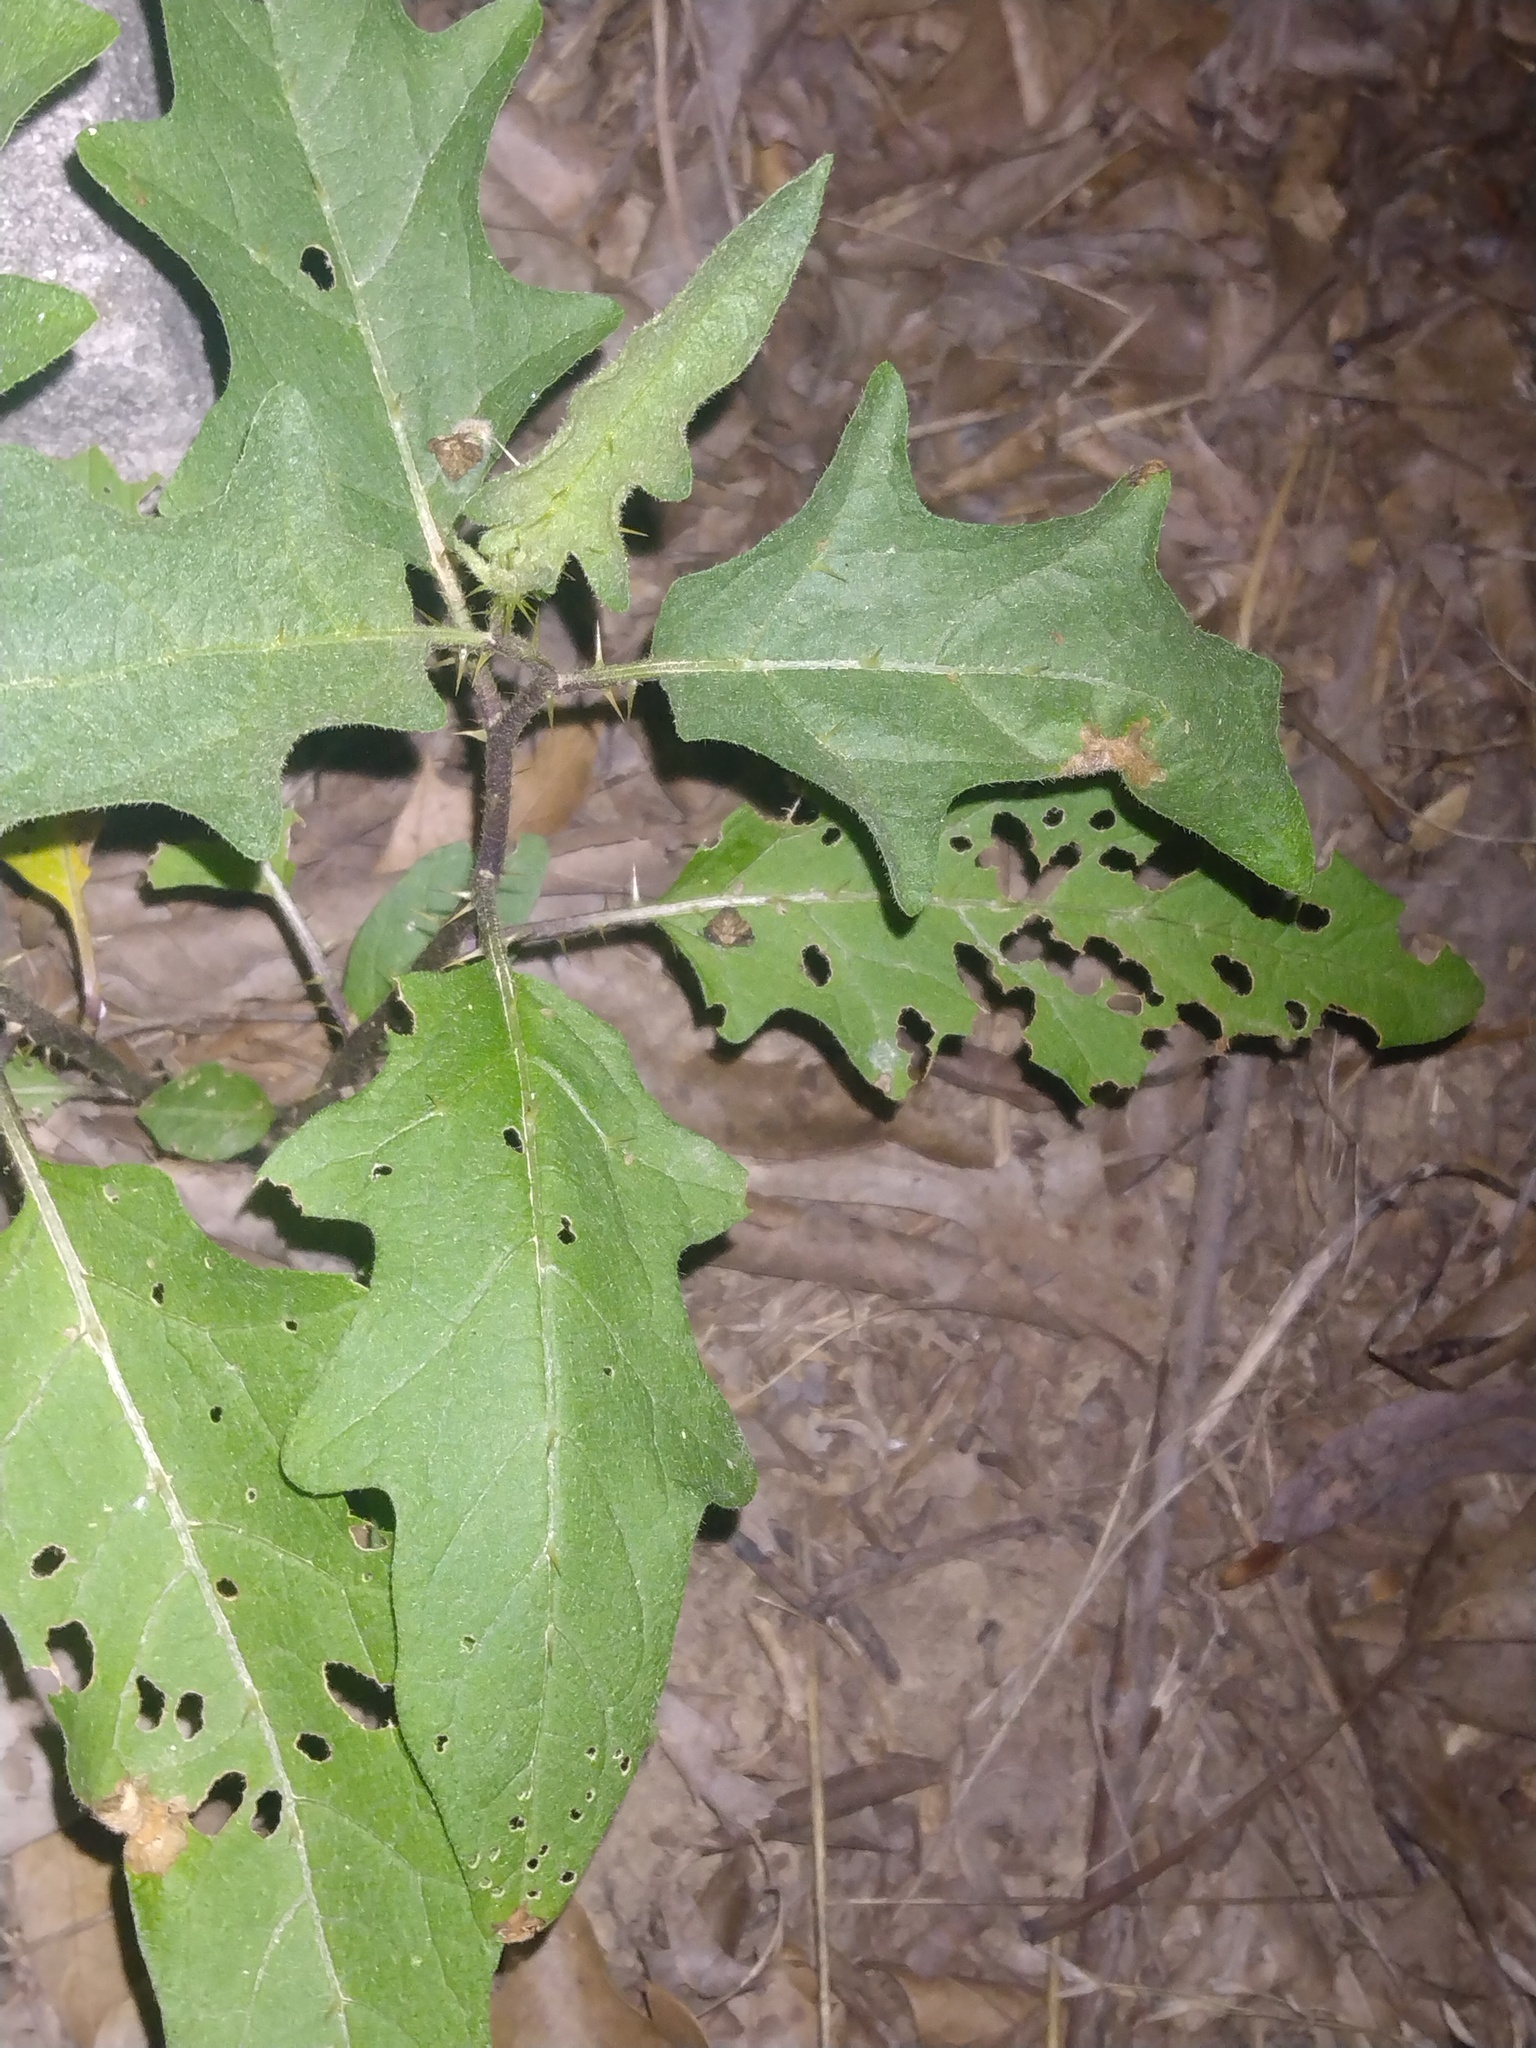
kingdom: Plantae
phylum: Tracheophyta
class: Magnoliopsida
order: Solanales
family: Solanaceae
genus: Solanum
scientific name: Solanum carolinense
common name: Horse-nettle
